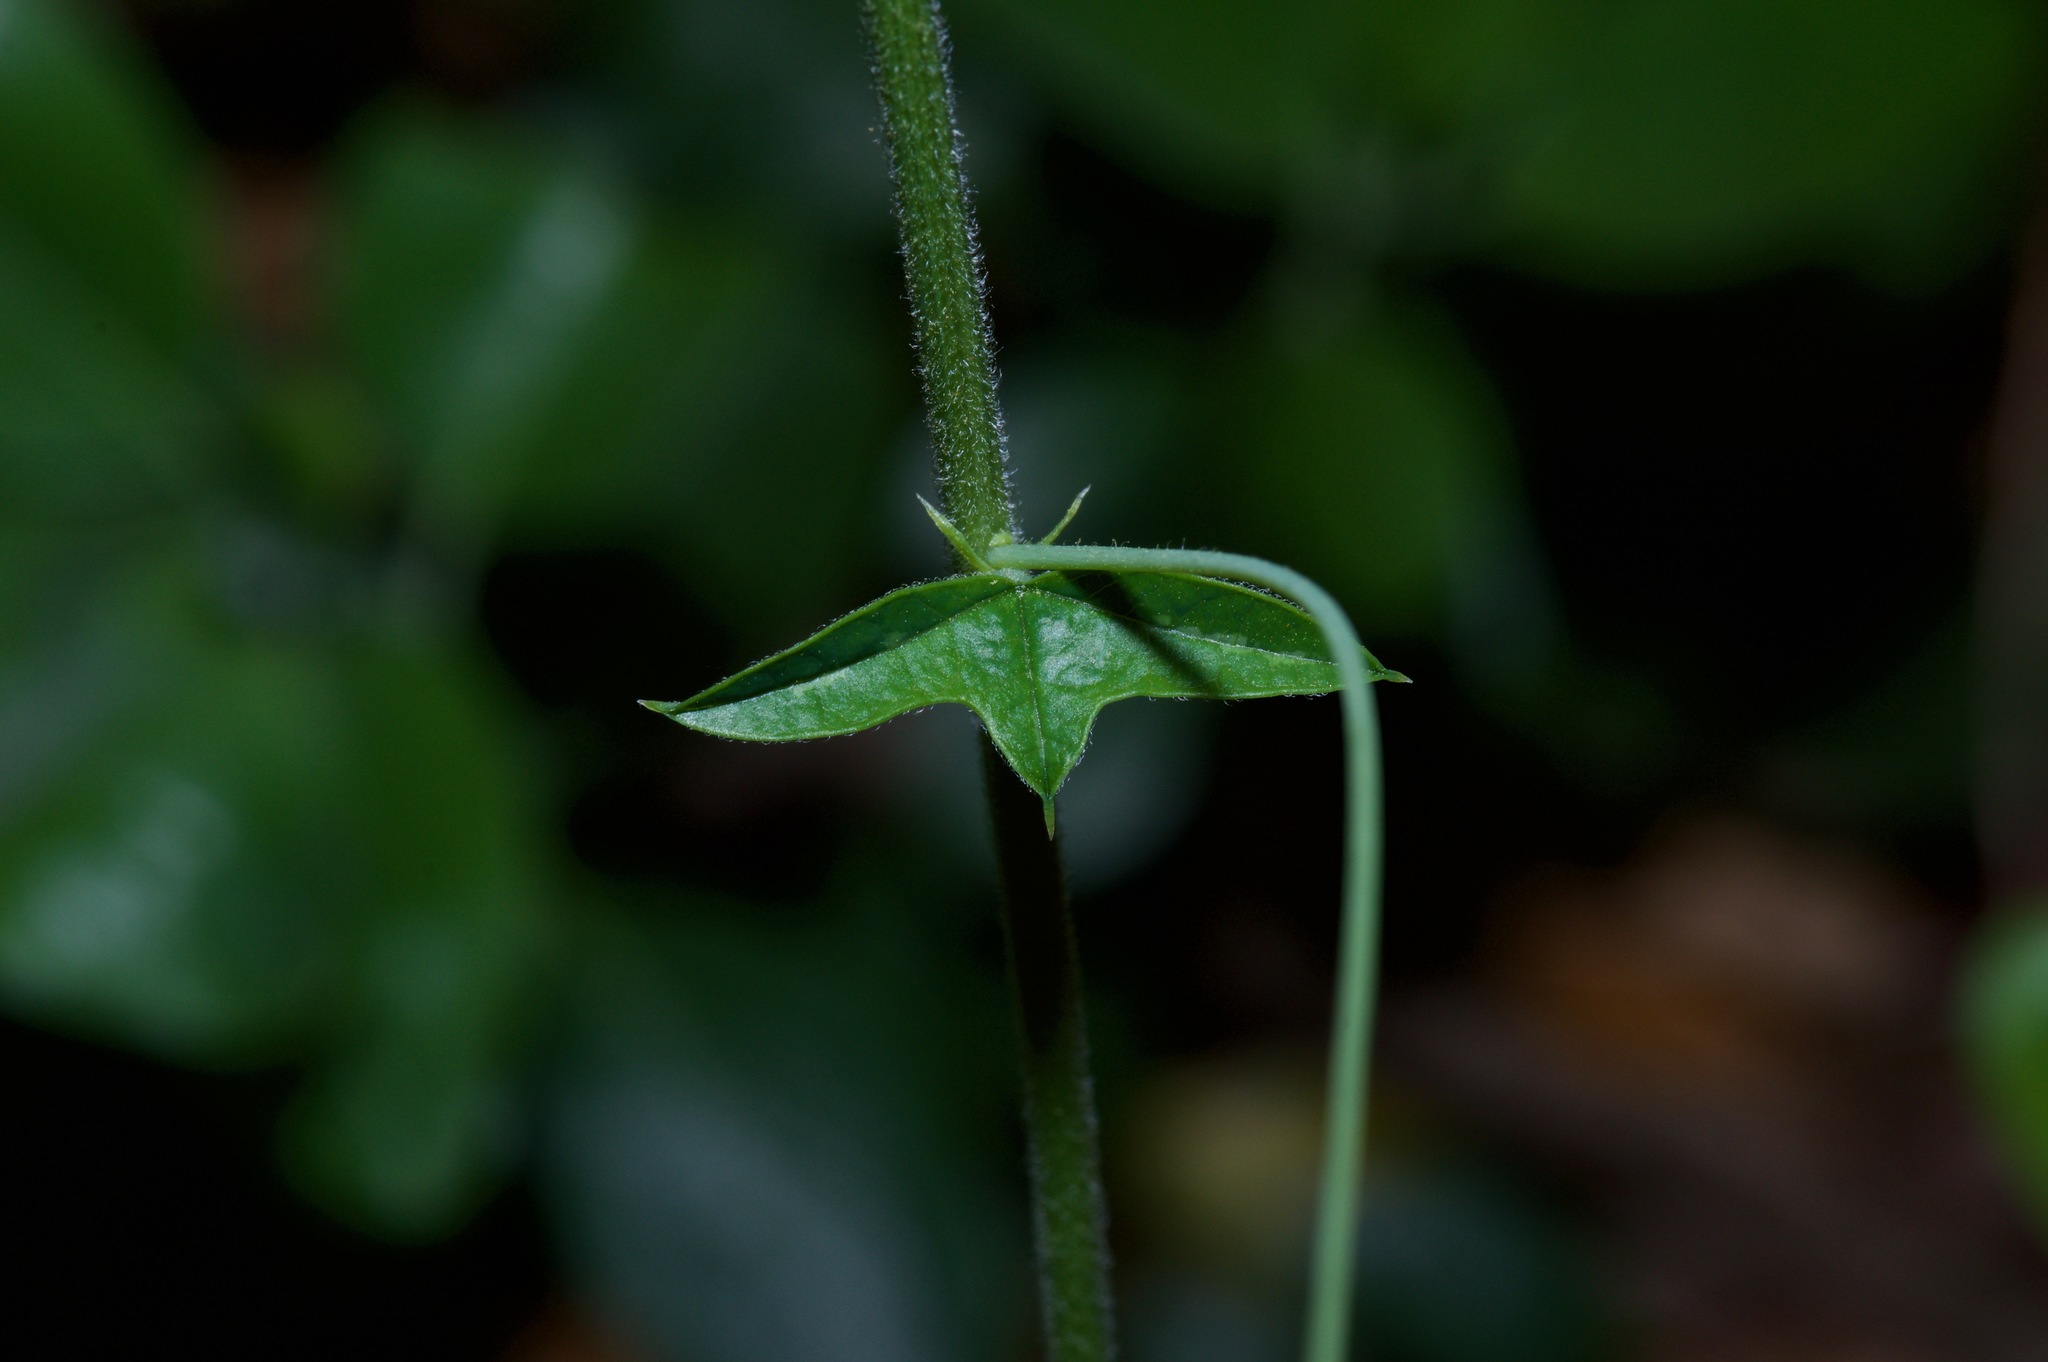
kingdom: Plantae
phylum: Tracheophyta
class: Magnoliopsida
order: Malpighiales
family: Passifloraceae
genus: Passiflora
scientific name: Passiflora tenuiloba
